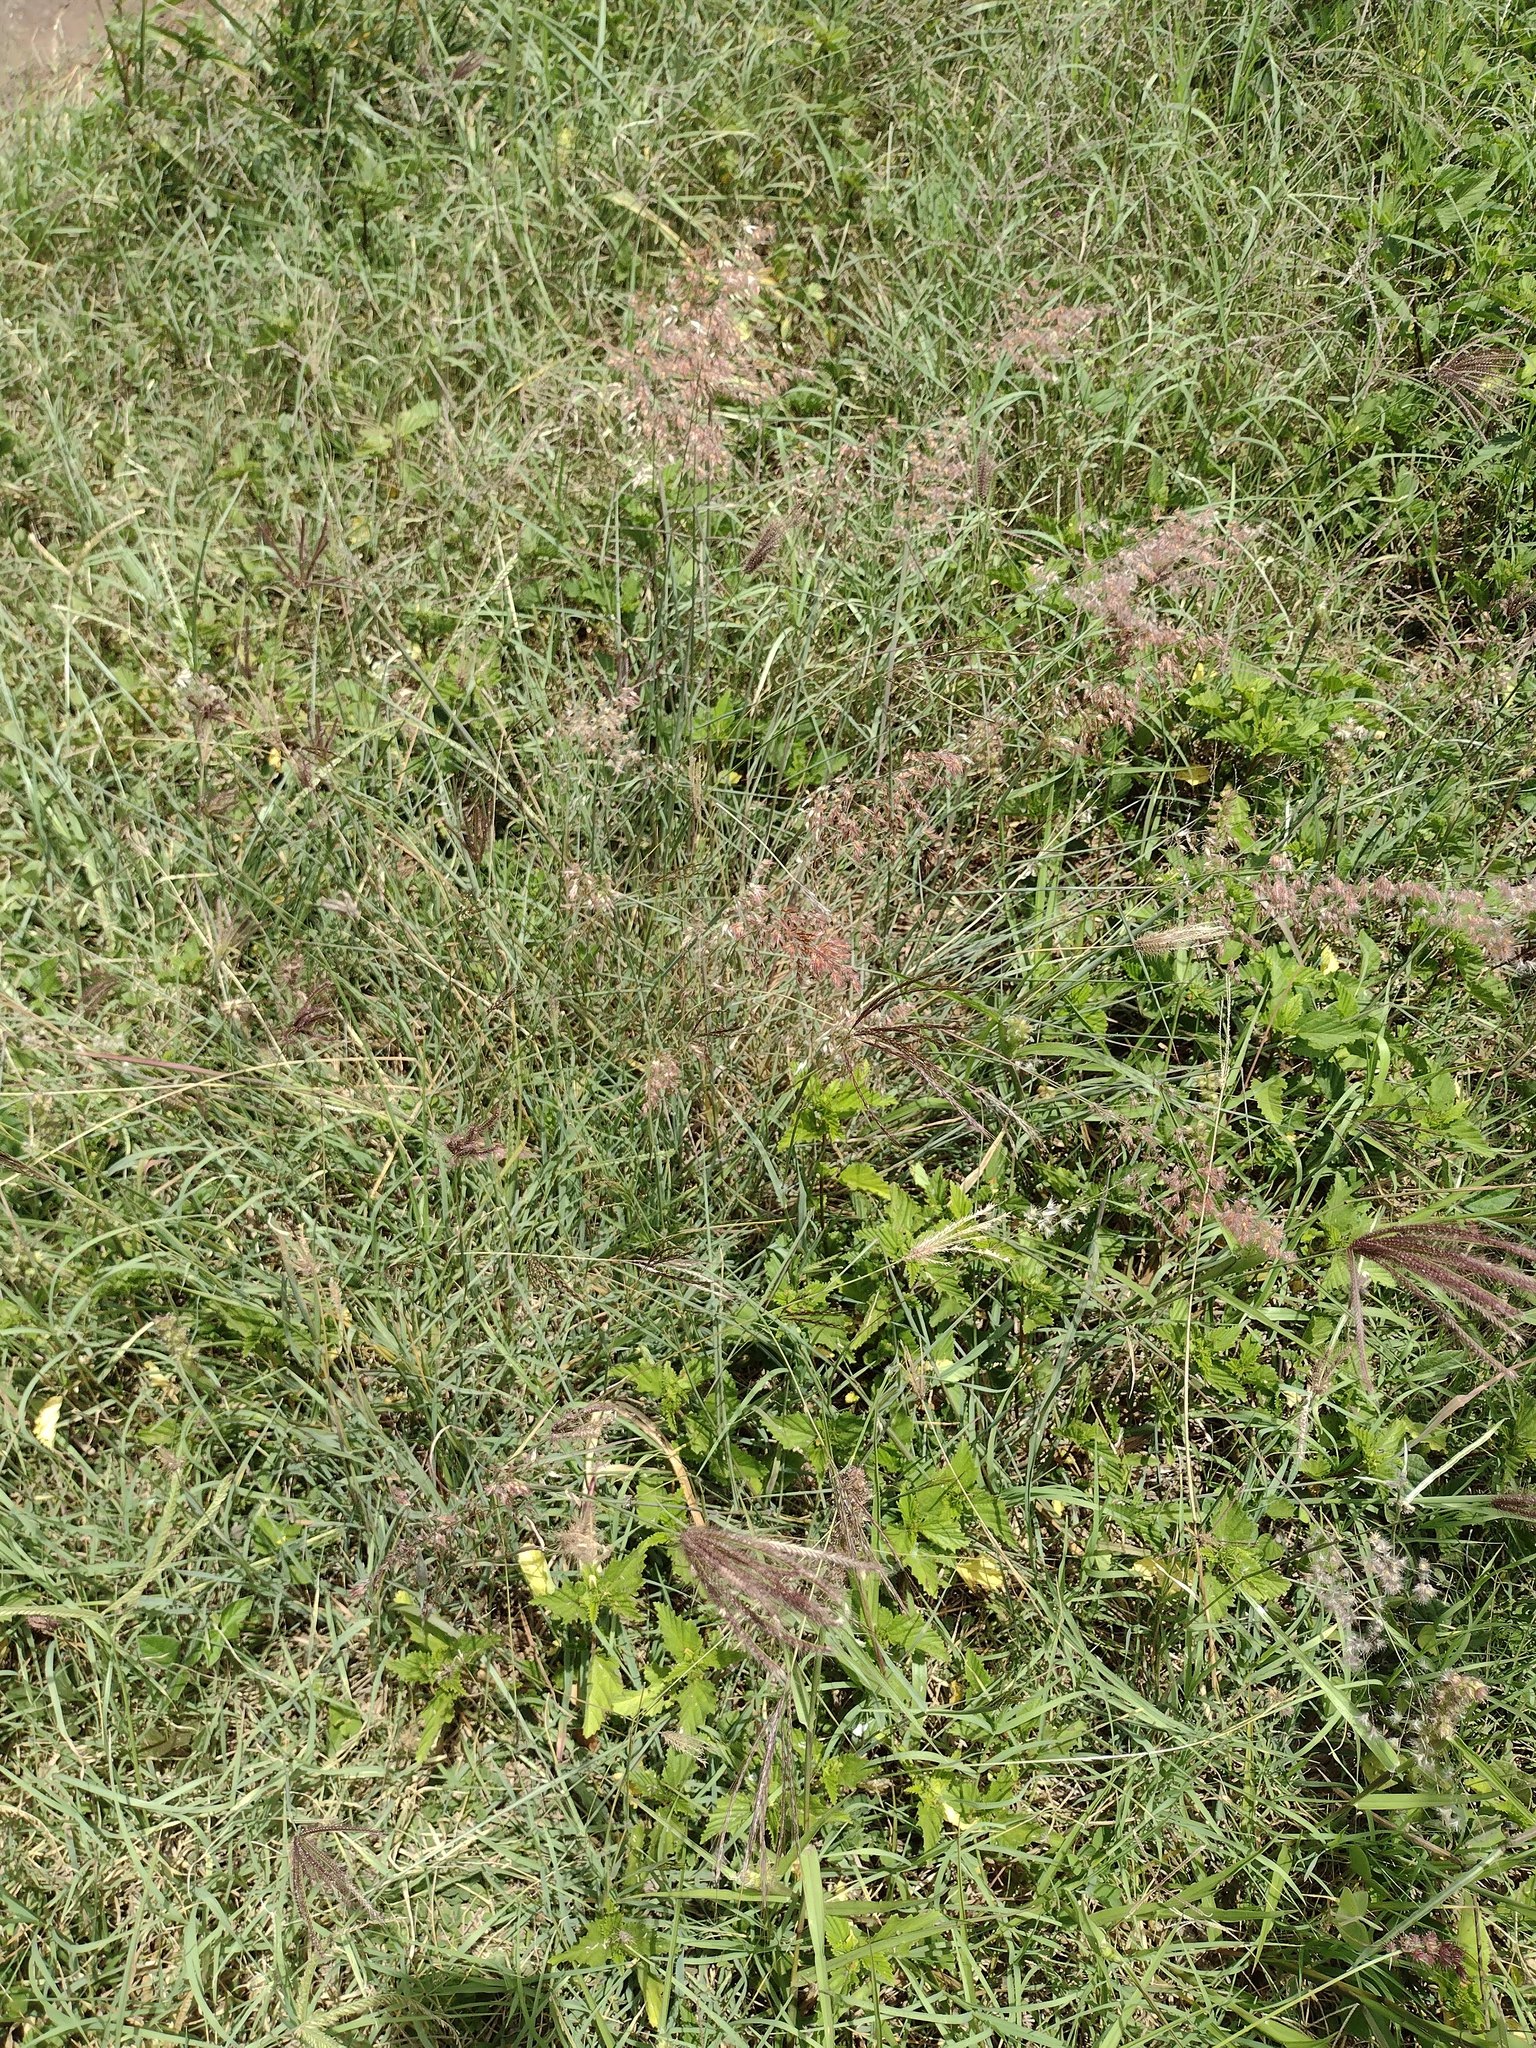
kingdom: Plantae
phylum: Tracheophyta
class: Liliopsida
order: Poales
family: Poaceae
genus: Melinis
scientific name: Melinis repens
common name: Rose natal grass
